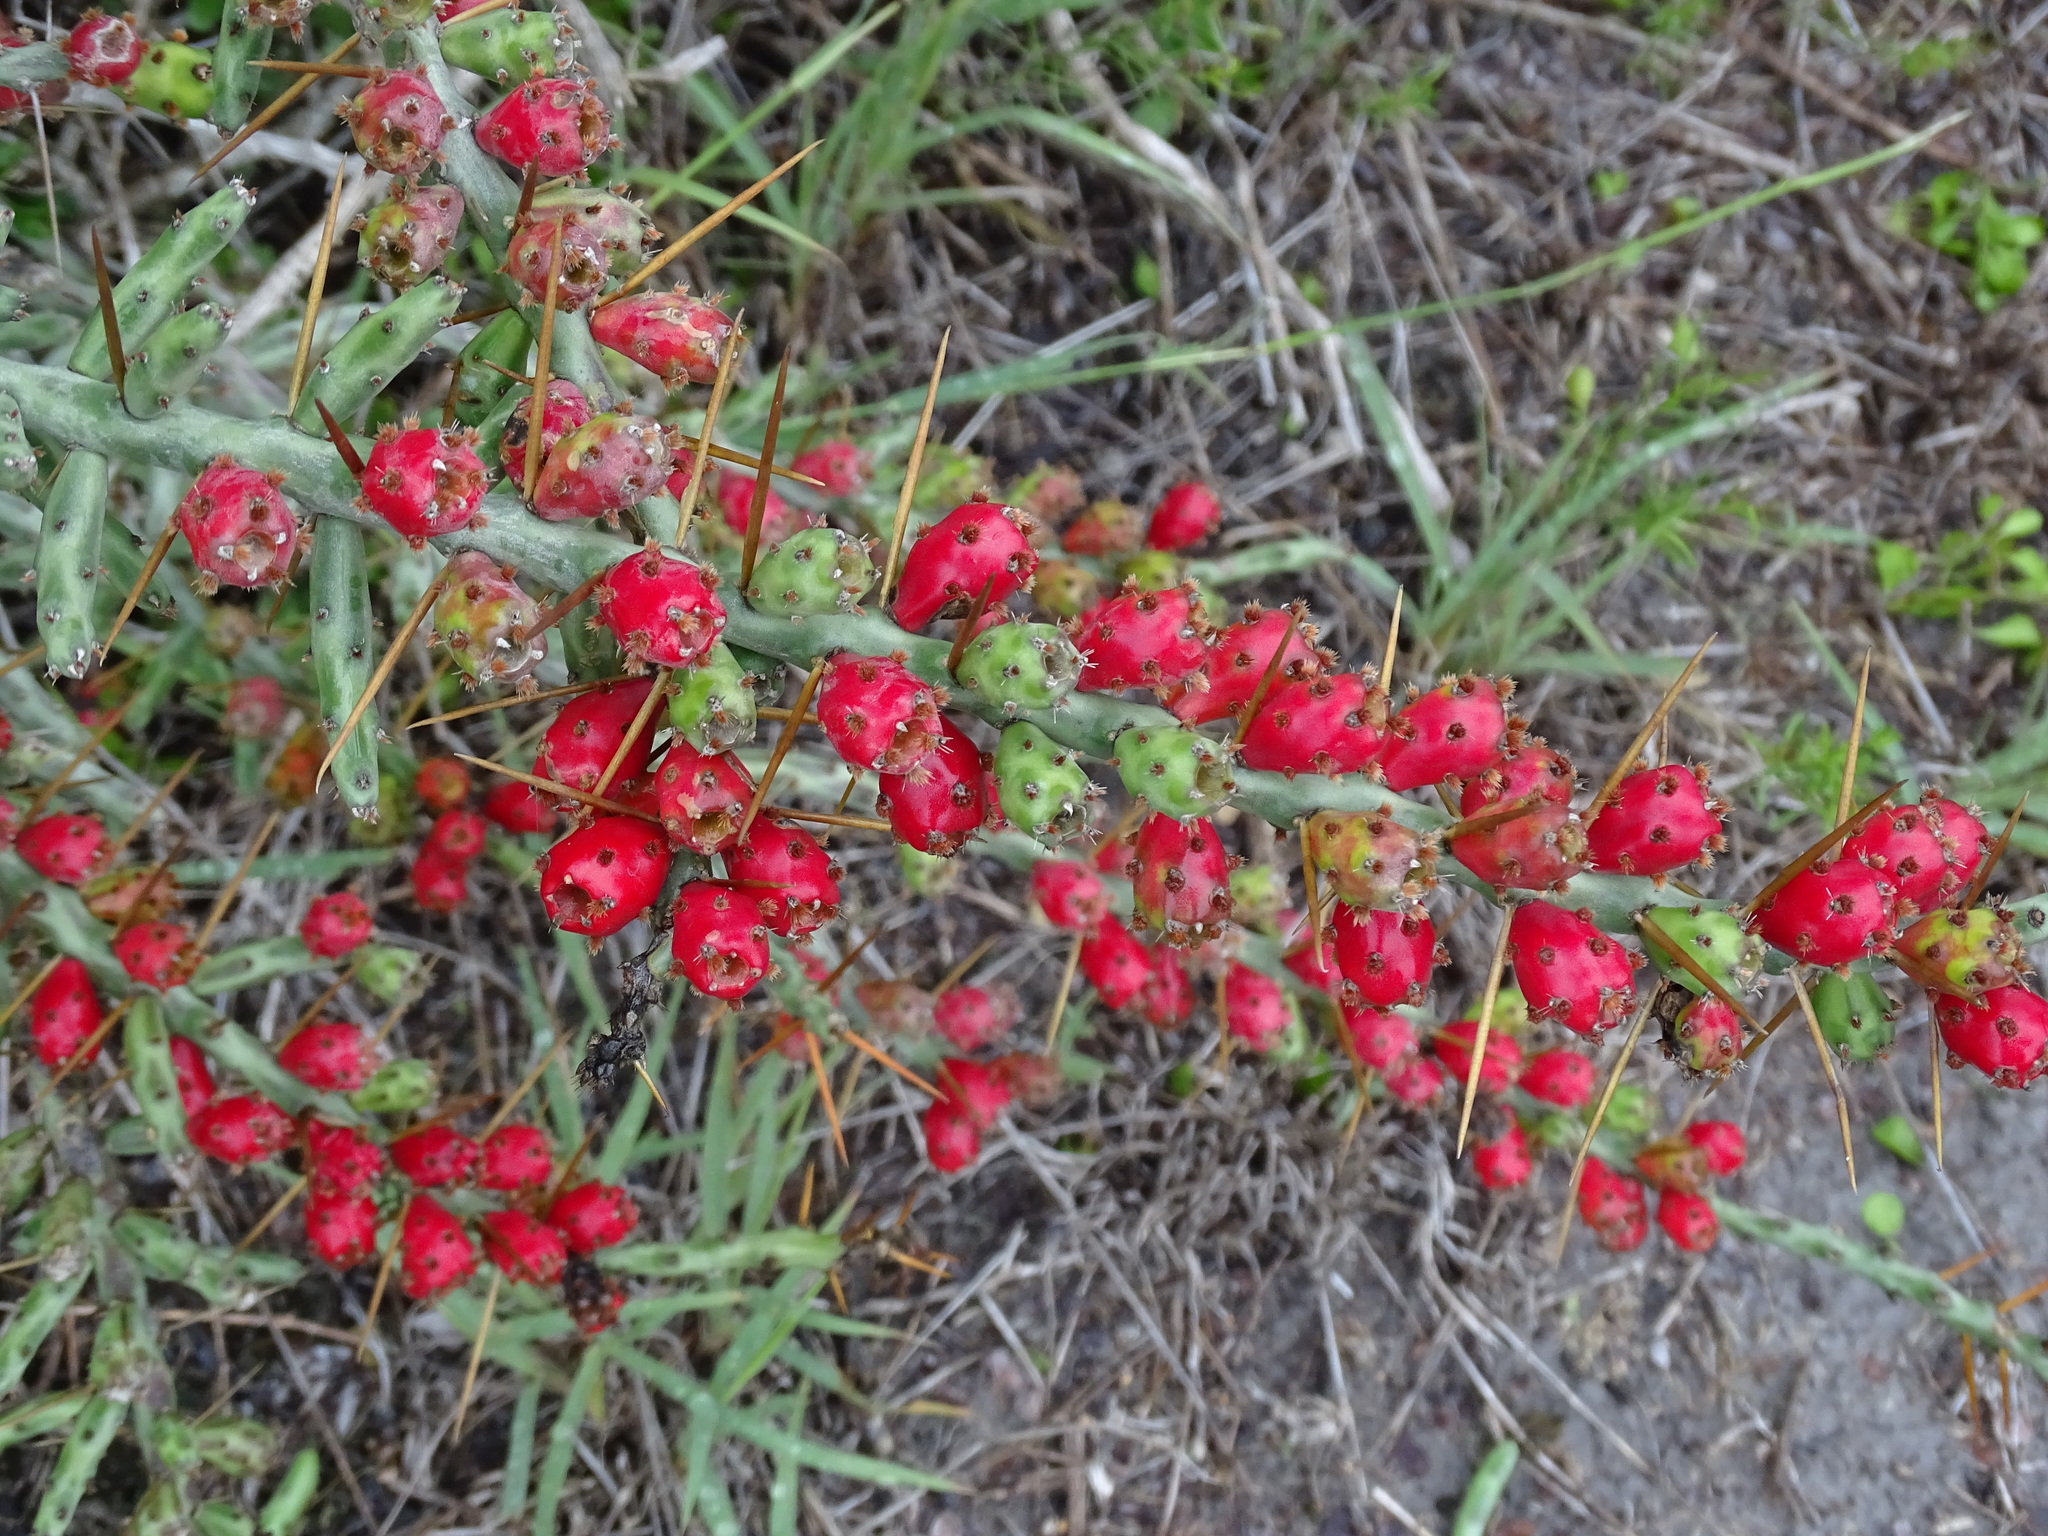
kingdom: Plantae
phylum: Tracheophyta
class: Magnoliopsida
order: Caryophyllales
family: Cactaceae
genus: Cylindropuntia
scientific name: Cylindropuntia leptocaulis
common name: Christmas cactus
